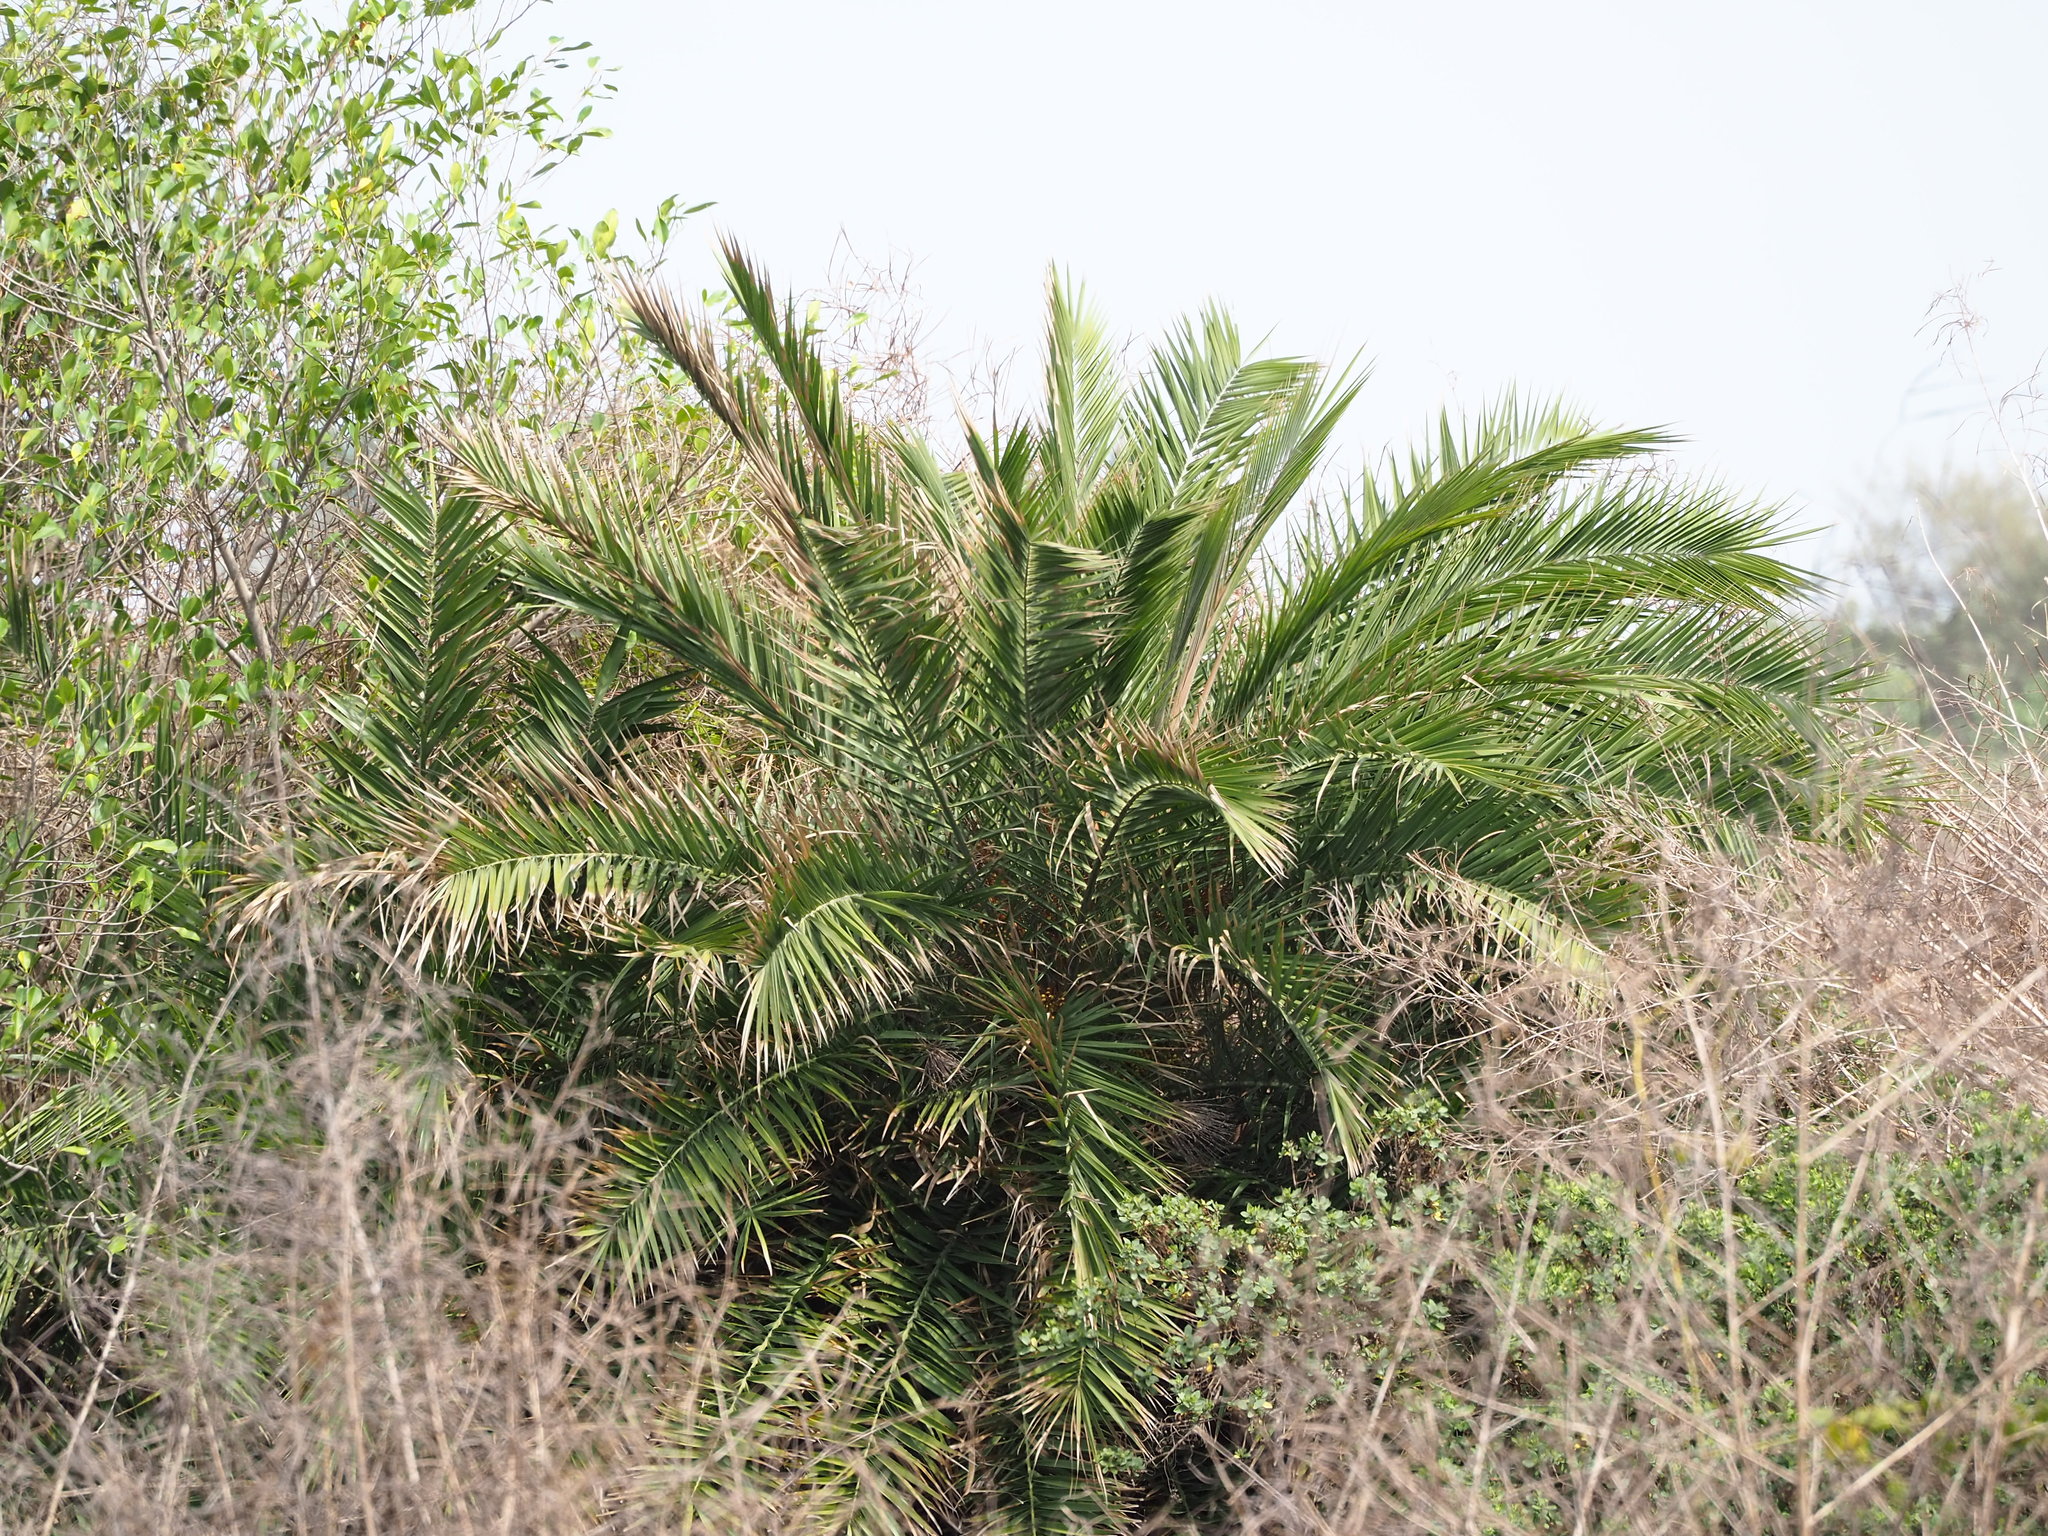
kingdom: Plantae
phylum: Tracheophyta
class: Liliopsida
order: Arecales
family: Arecaceae
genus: Phoenix
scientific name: Phoenix loureiroi
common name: Loureiro's palm
